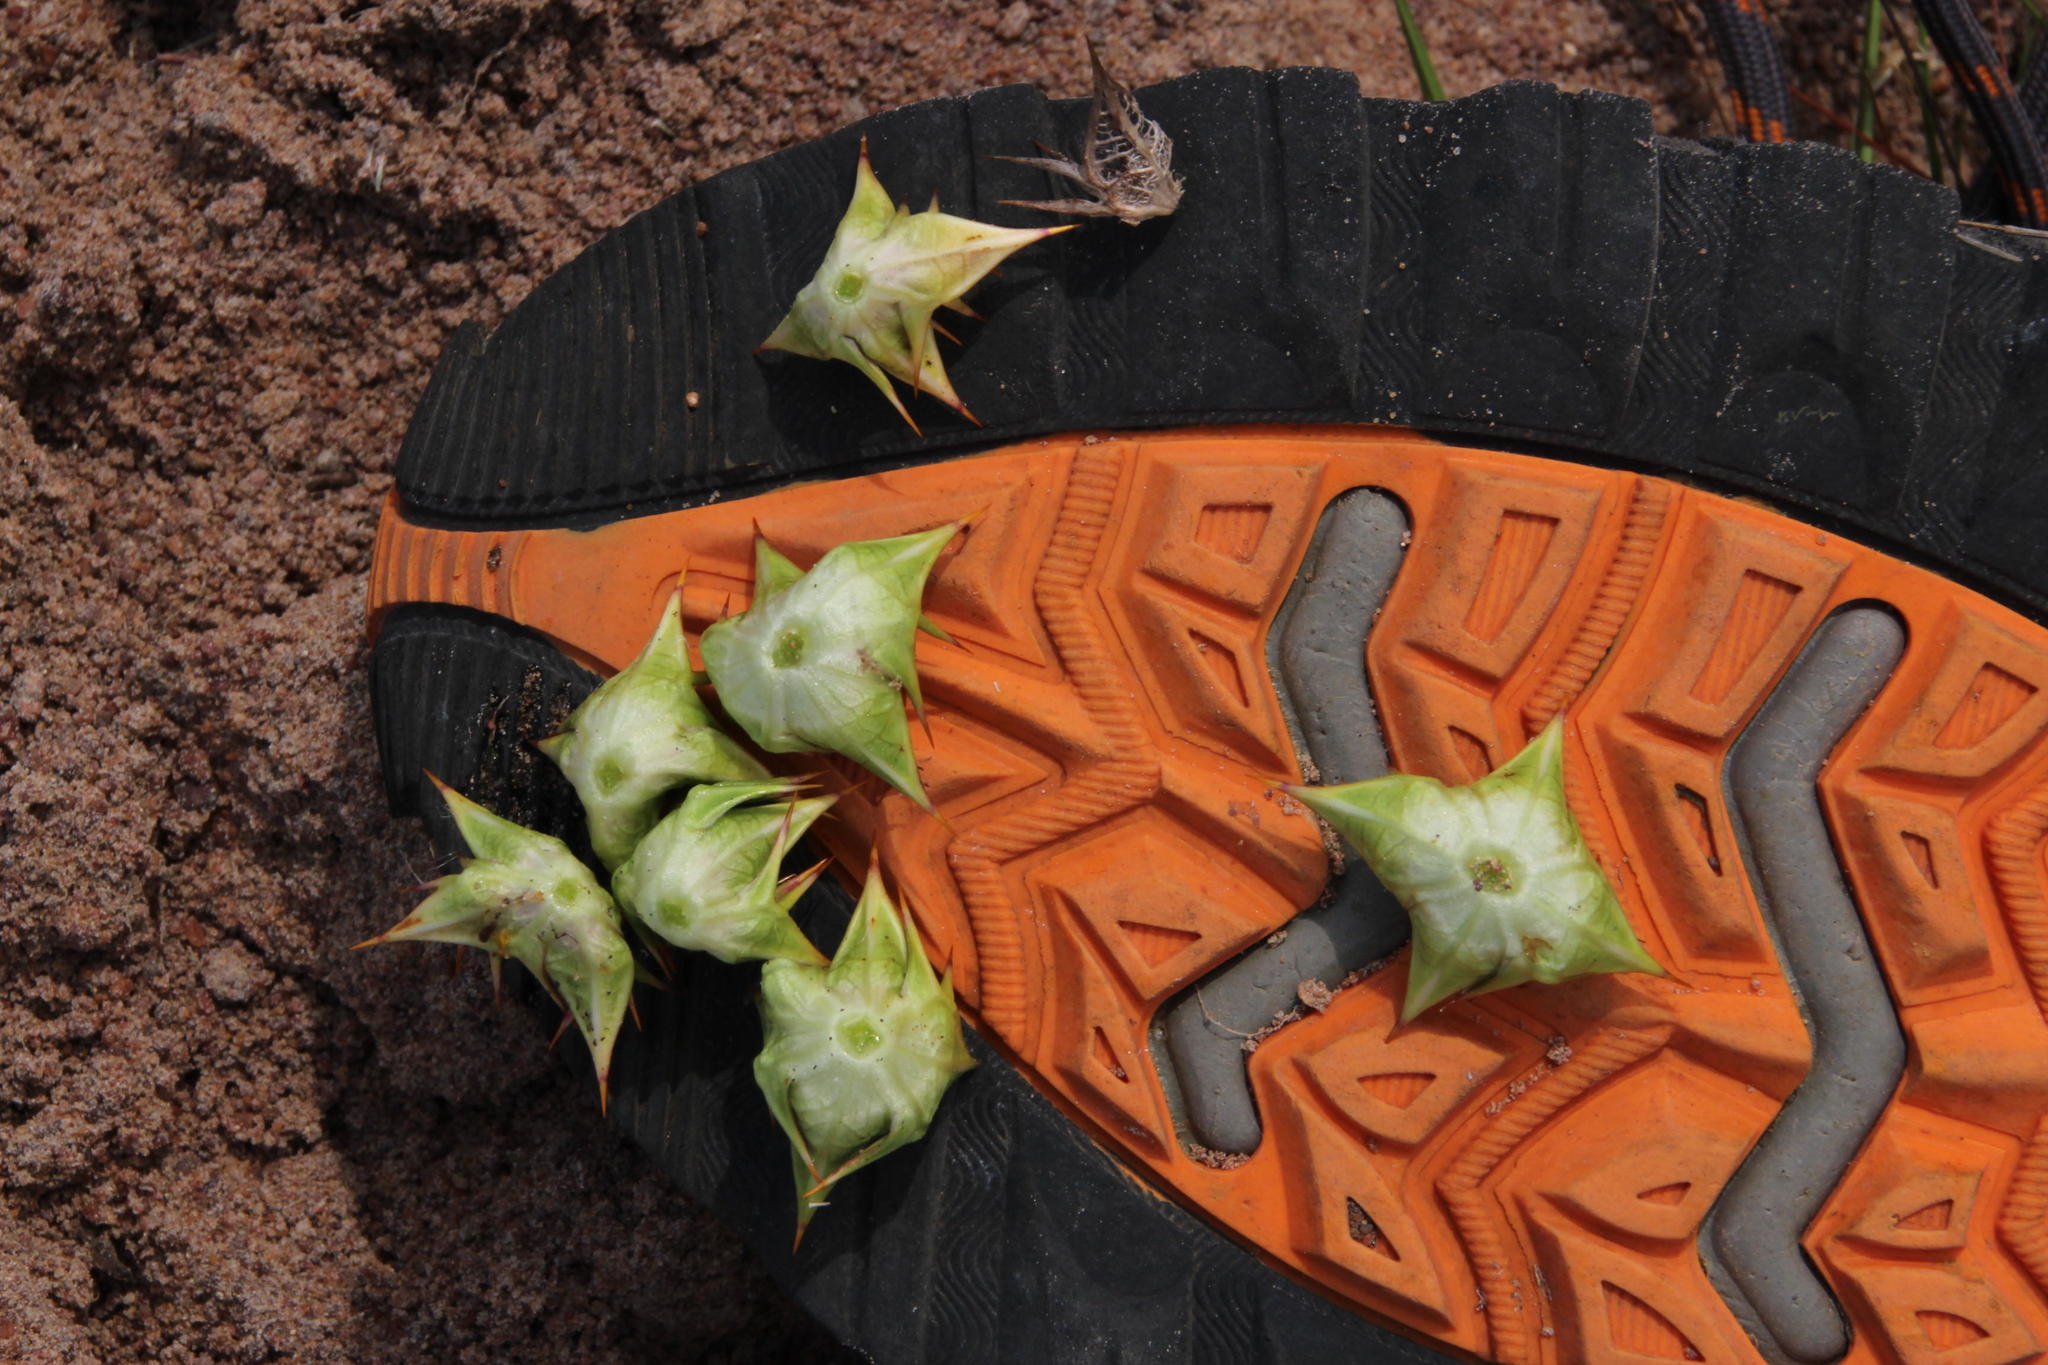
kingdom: Plantae
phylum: Tracheophyta
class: Magnoliopsida
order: Apiales
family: Apiaceae
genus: Arctopus
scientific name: Arctopus echinatus
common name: Platdoring
